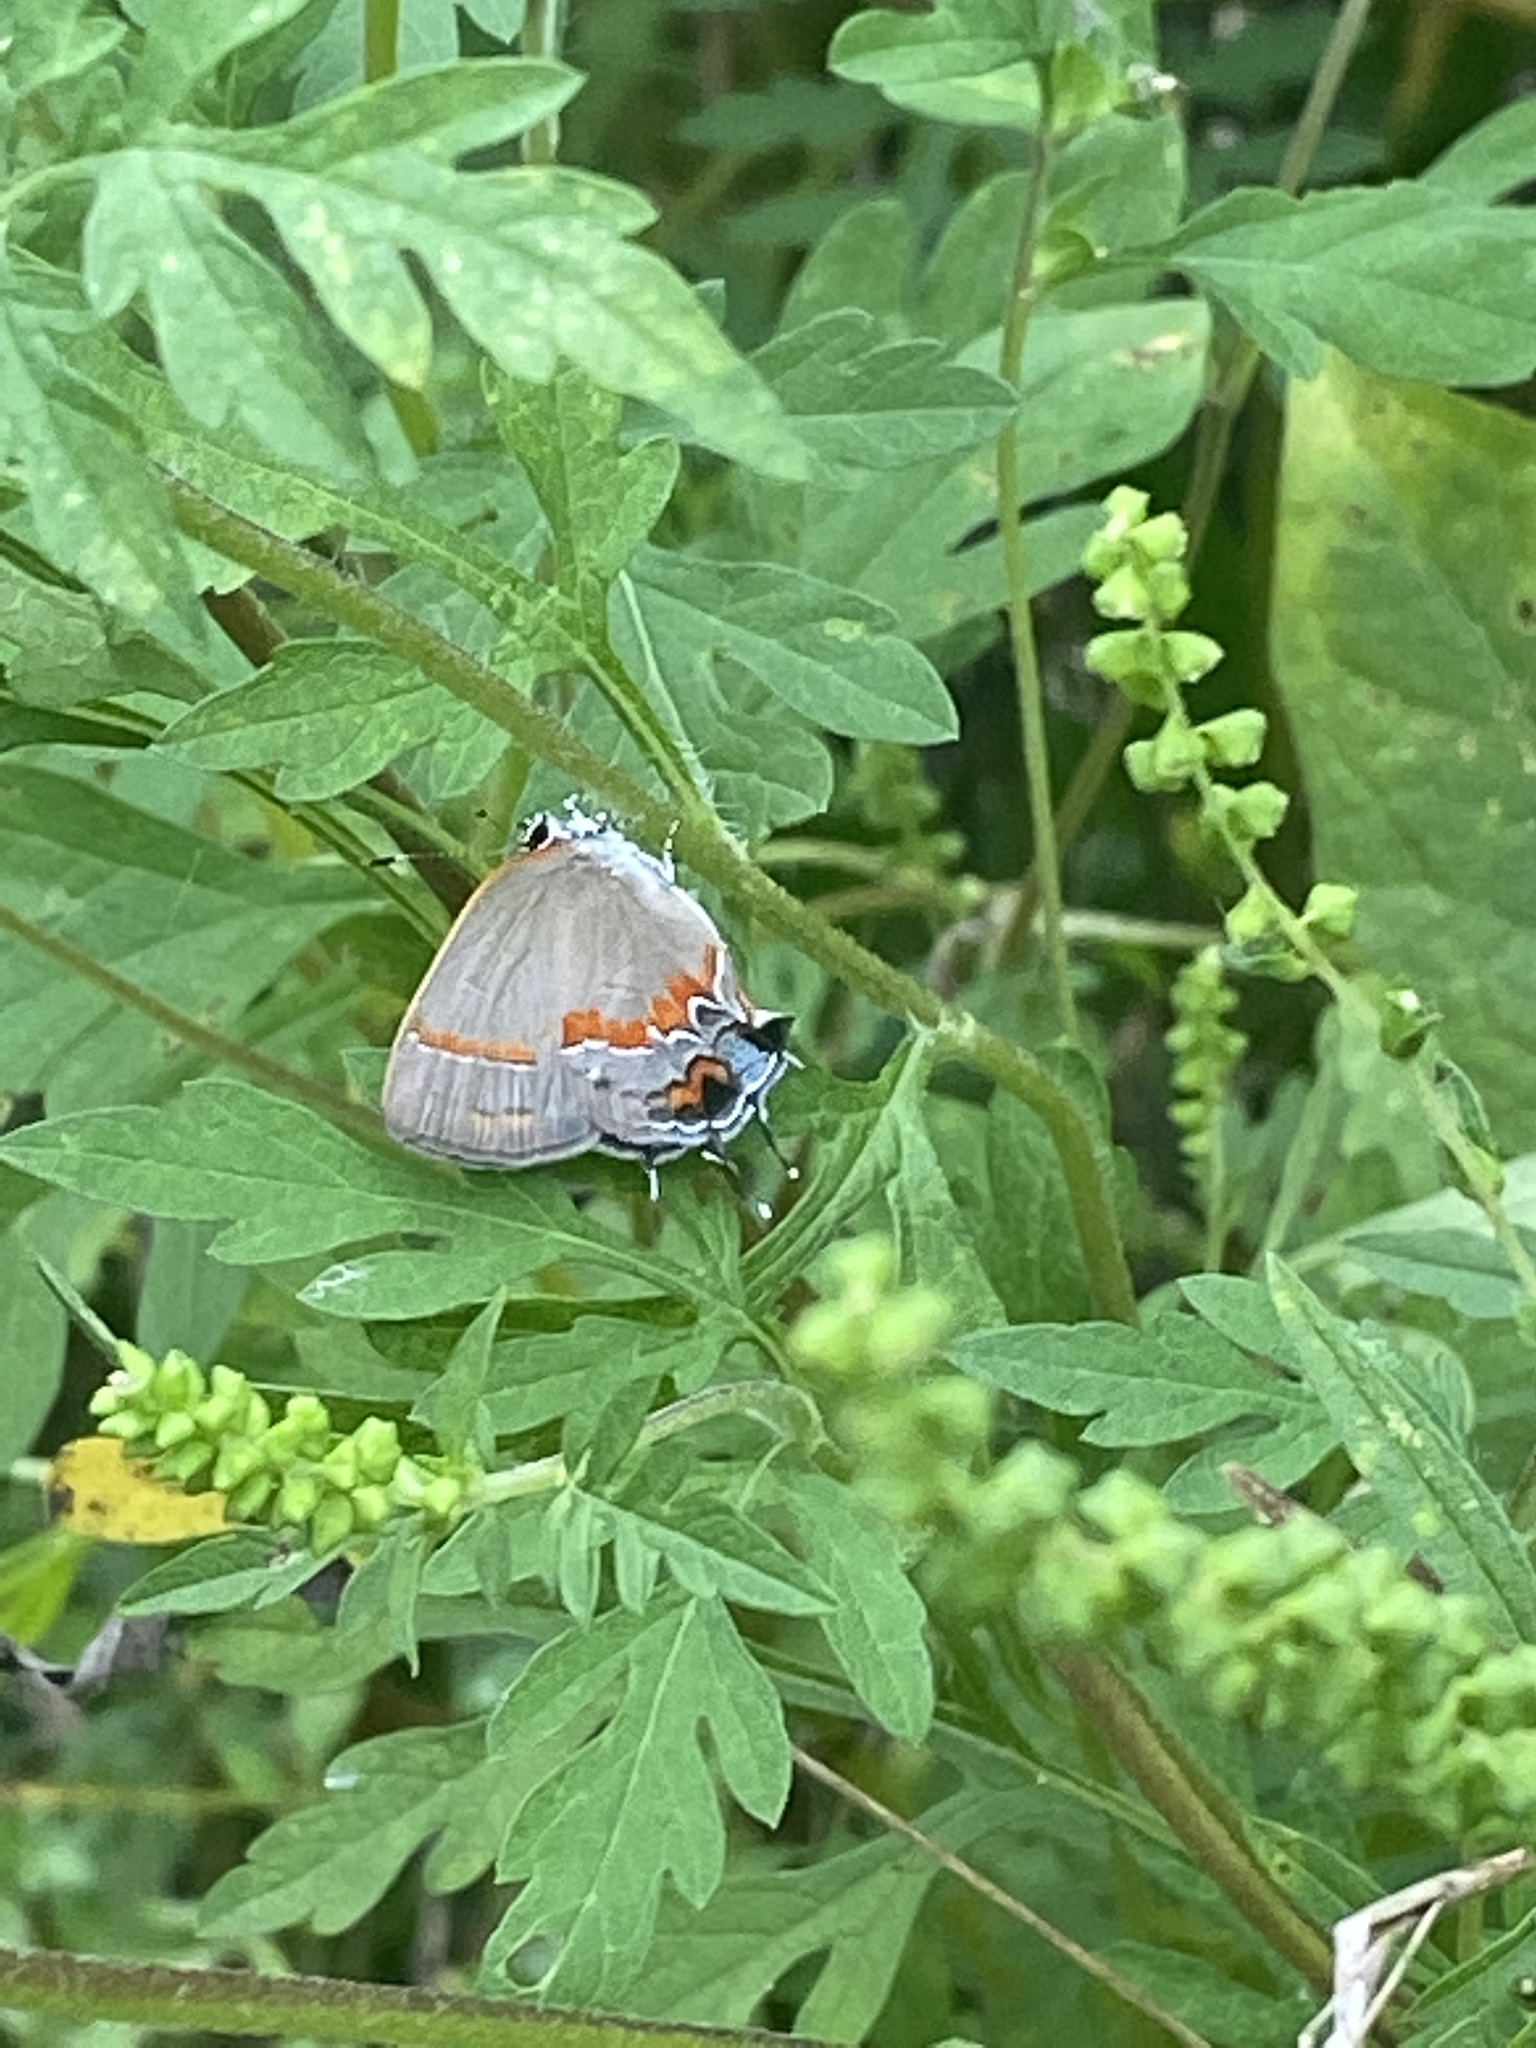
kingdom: Animalia
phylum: Arthropoda
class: Insecta
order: Lepidoptera
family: Lycaenidae
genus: Calycopis
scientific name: Calycopis cecrops
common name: Red-banded hairstreak
